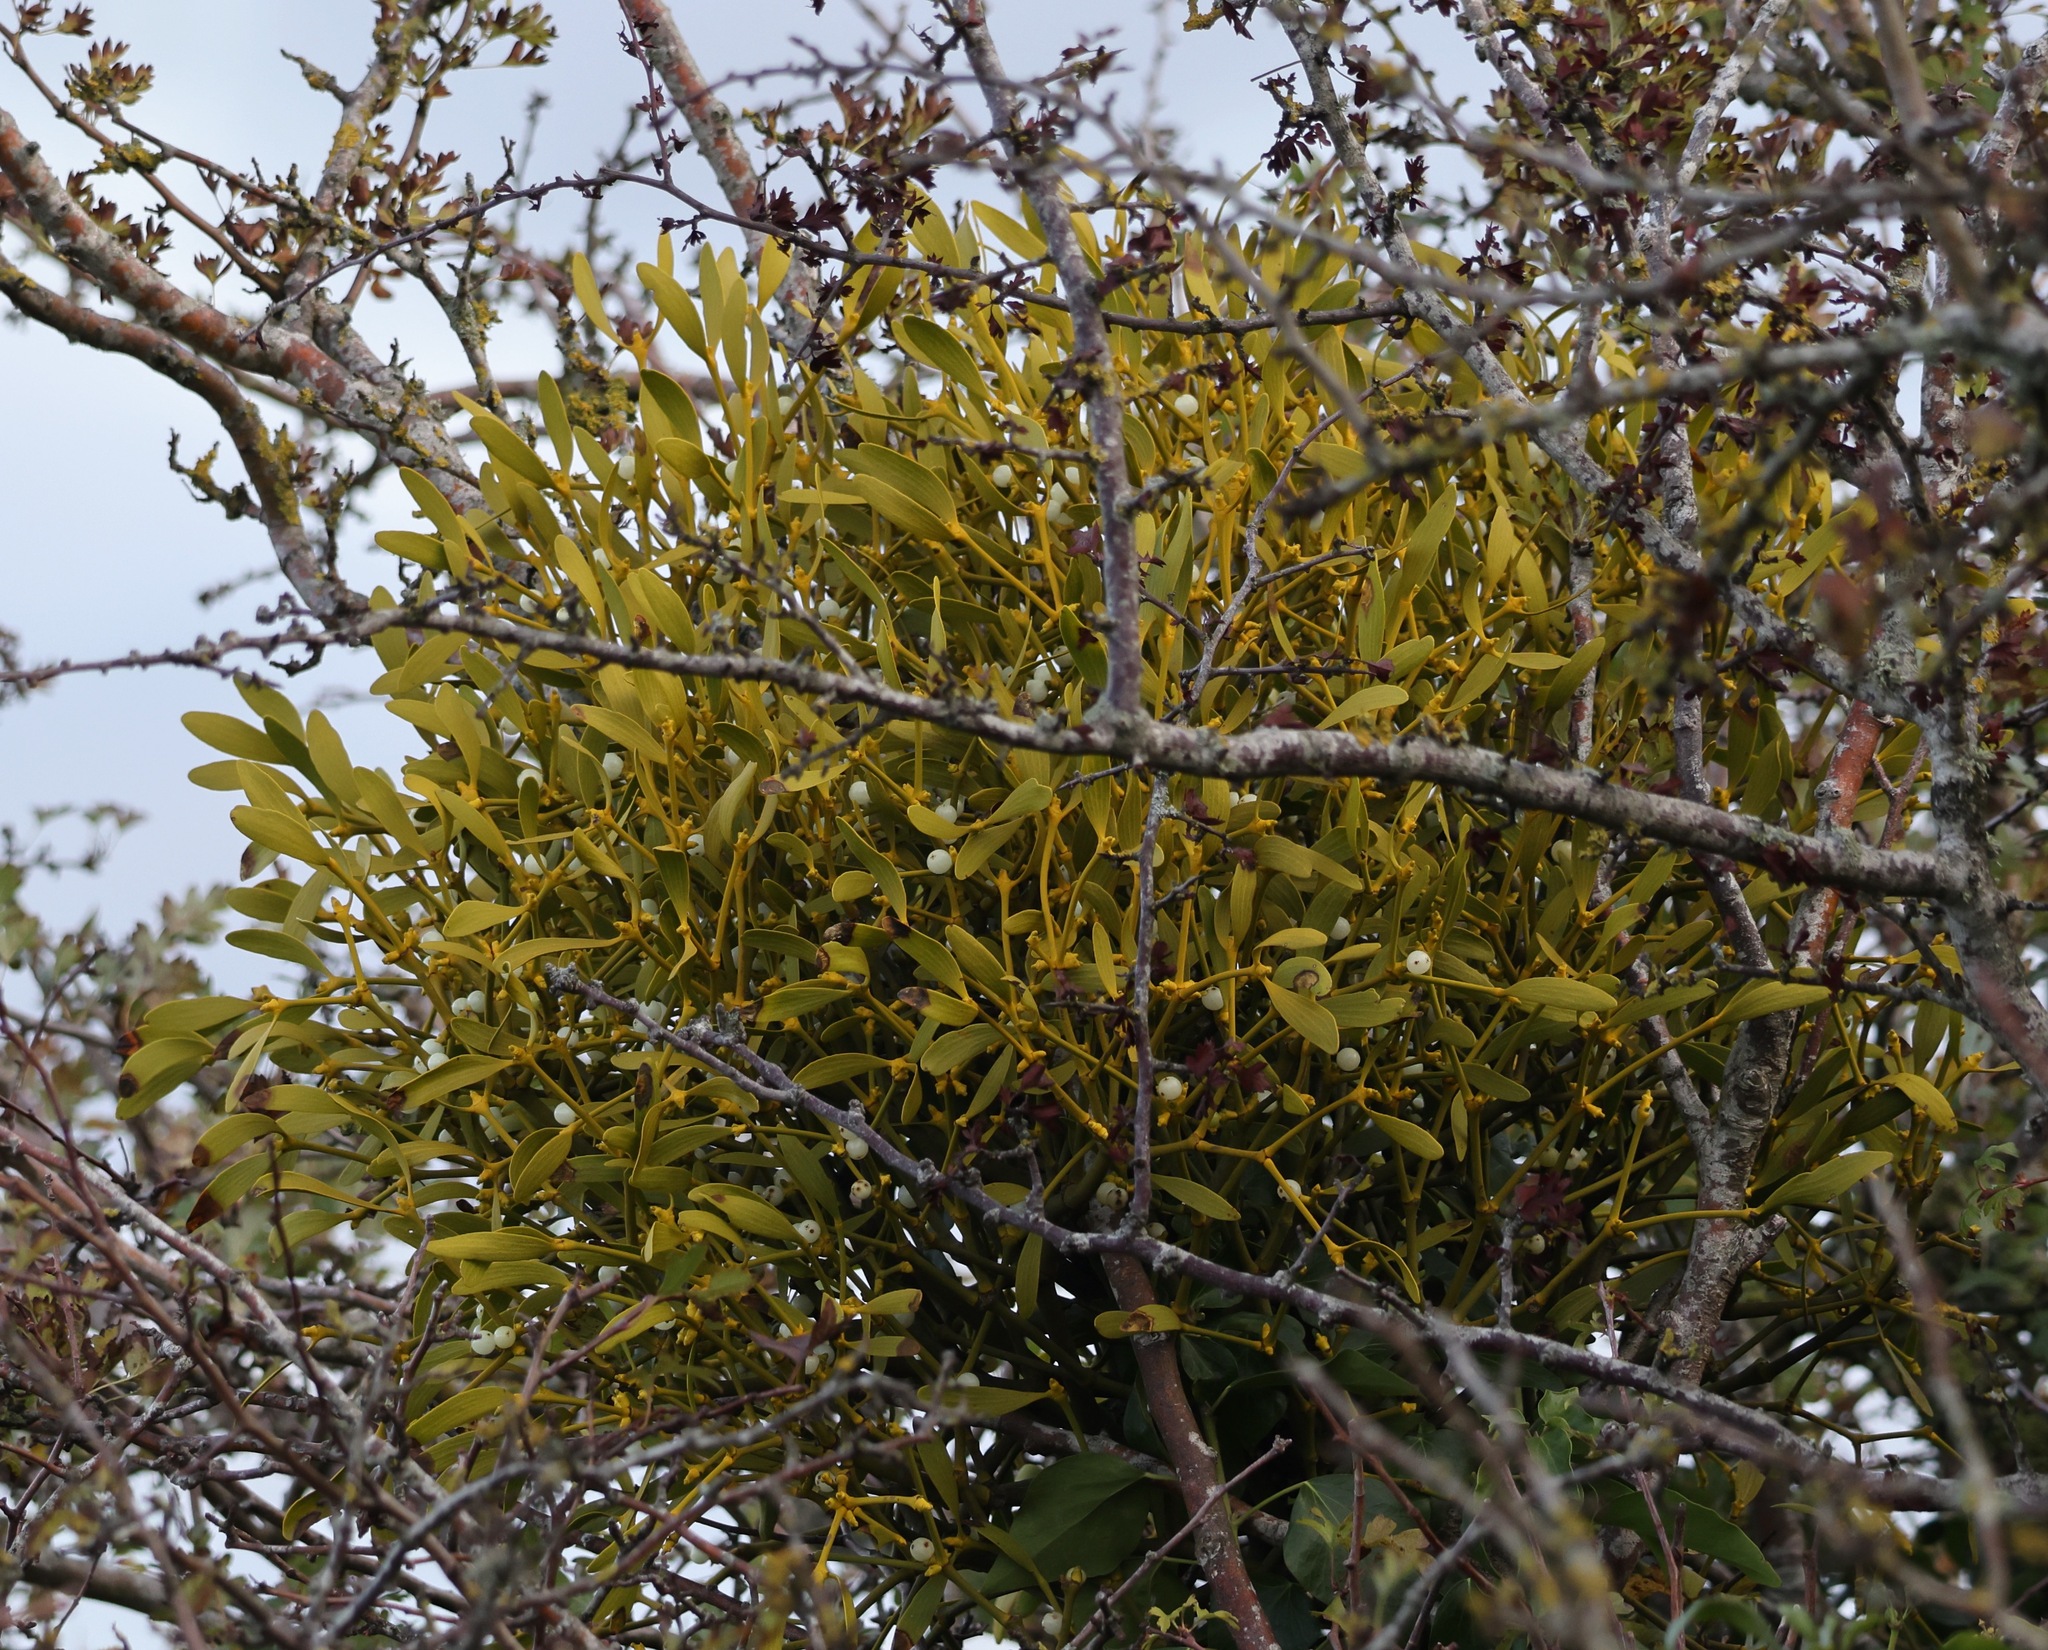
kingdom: Plantae
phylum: Tracheophyta
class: Magnoliopsida
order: Santalales
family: Viscaceae
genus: Viscum
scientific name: Viscum album
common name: Mistletoe
